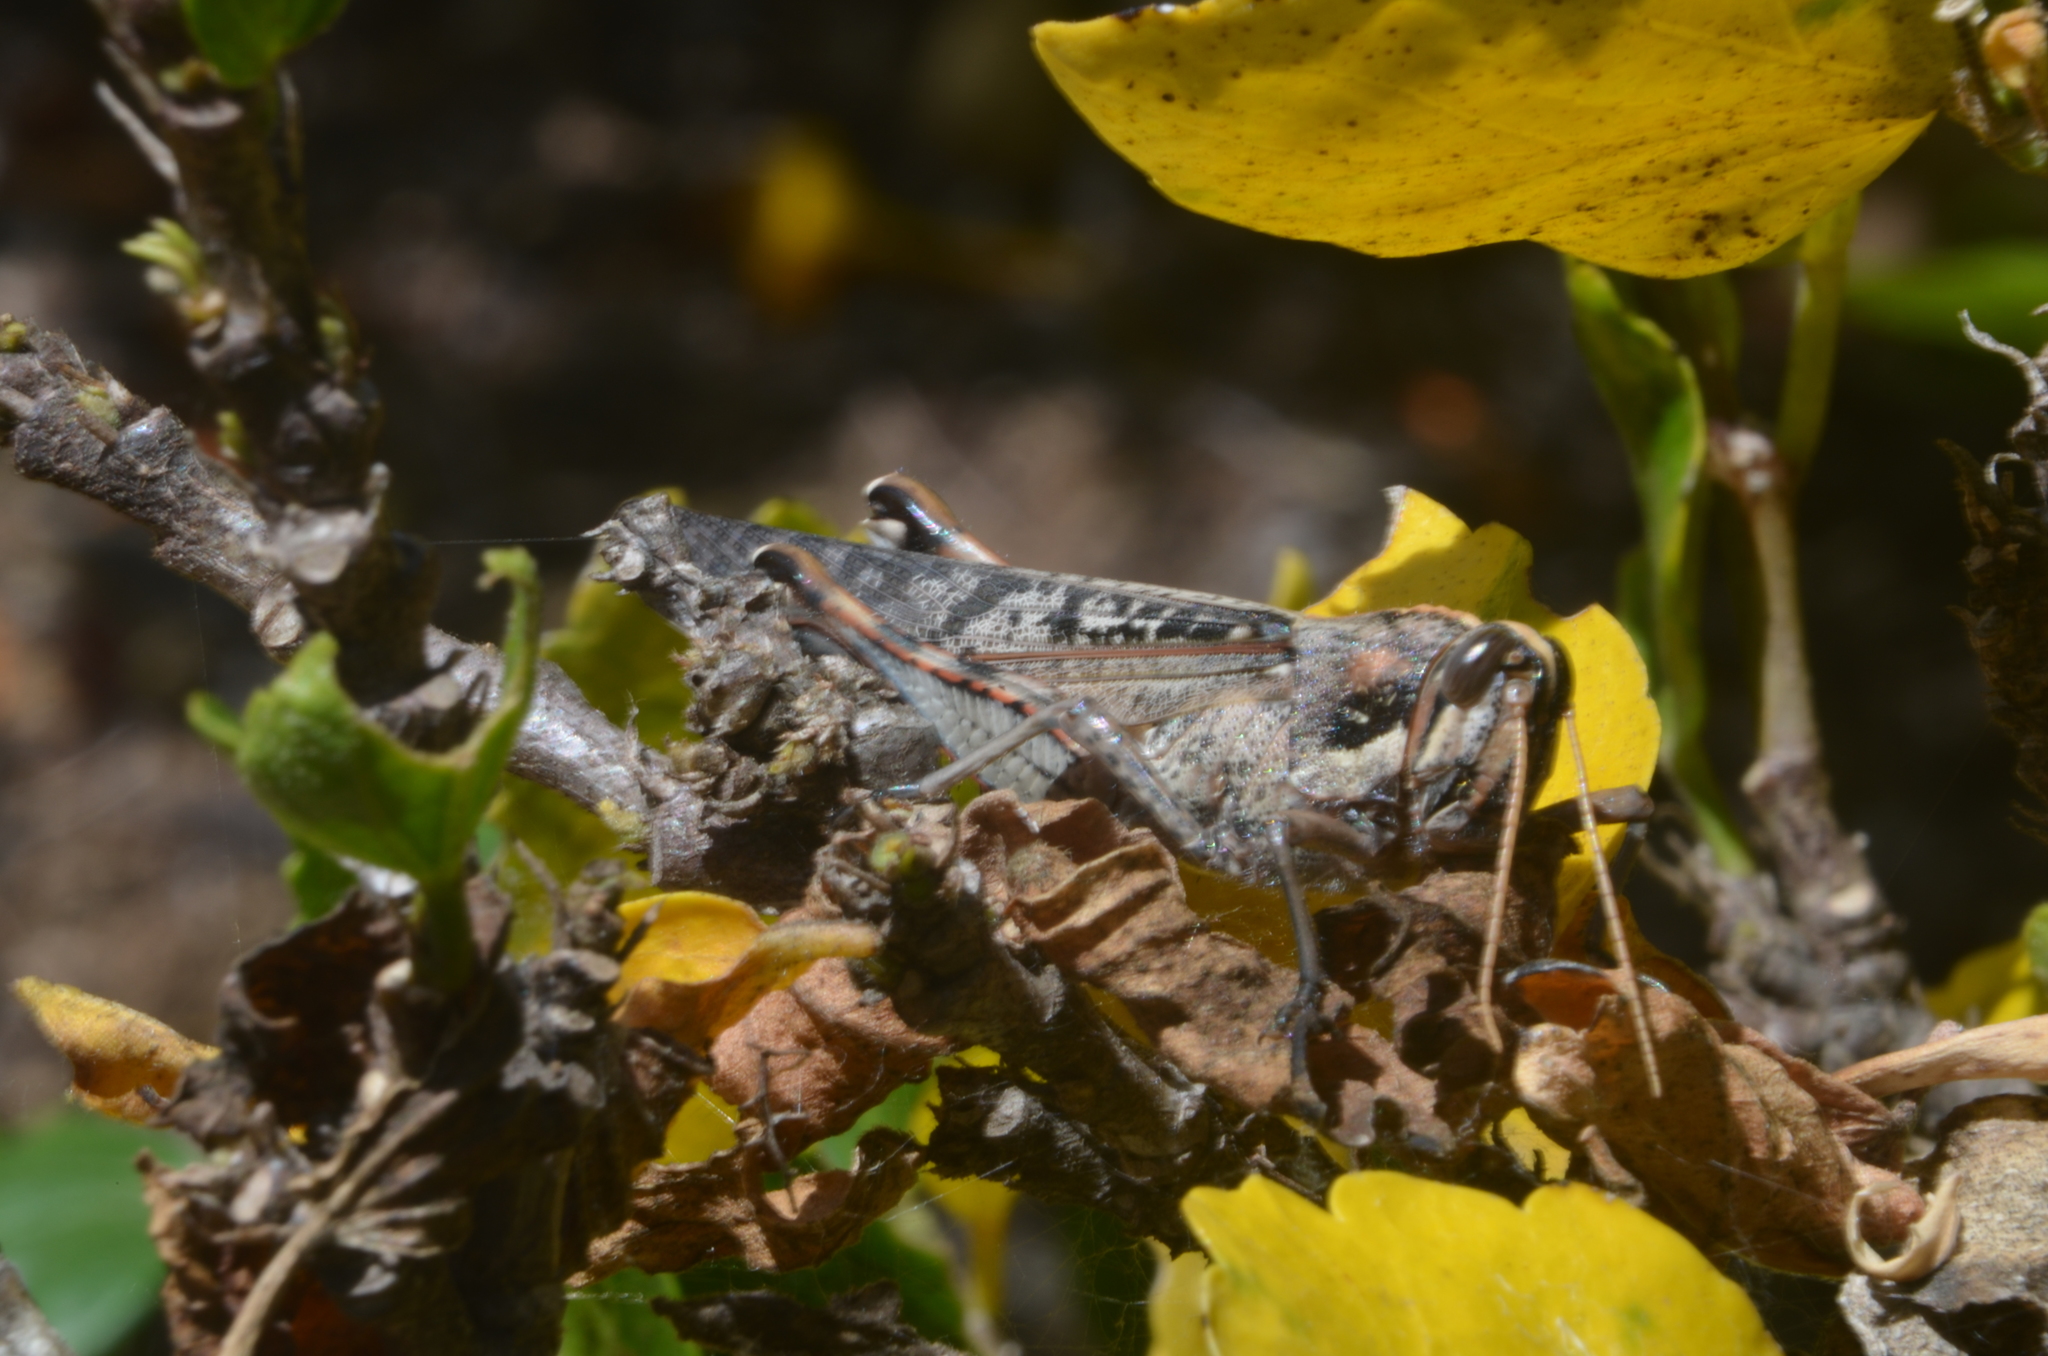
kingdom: Animalia
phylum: Arthropoda
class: Insecta
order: Orthoptera
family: Acrididae
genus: Schistocerca
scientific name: Schistocerca nitens
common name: Vagrant grasshopper
